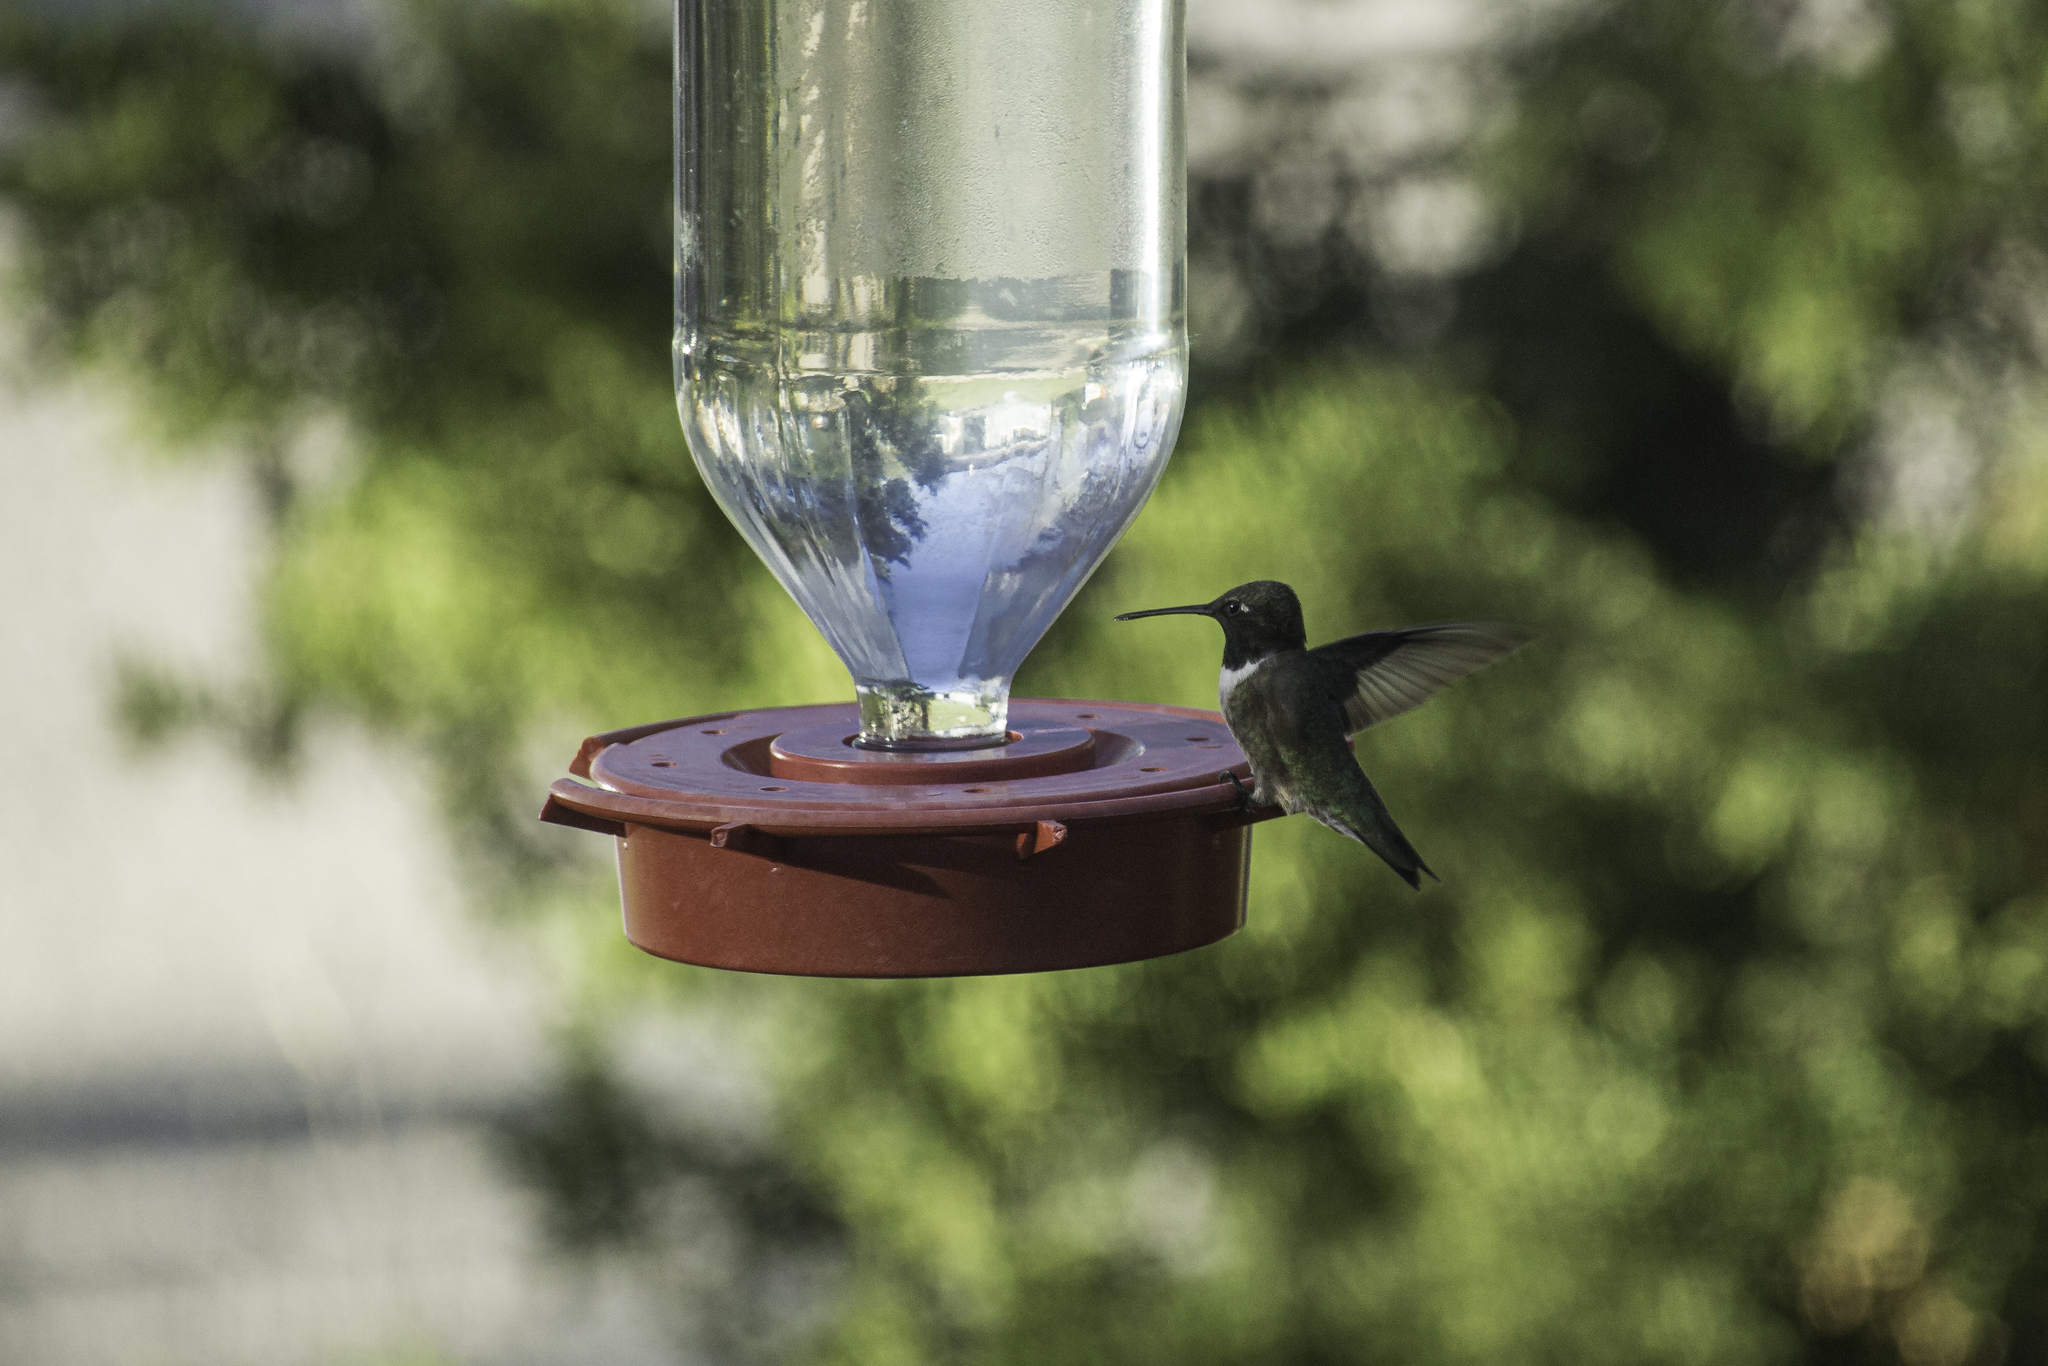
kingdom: Animalia
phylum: Chordata
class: Aves
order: Apodiformes
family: Trochilidae
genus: Archilochus
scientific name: Archilochus alexandri
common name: Black-chinned hummingbird
